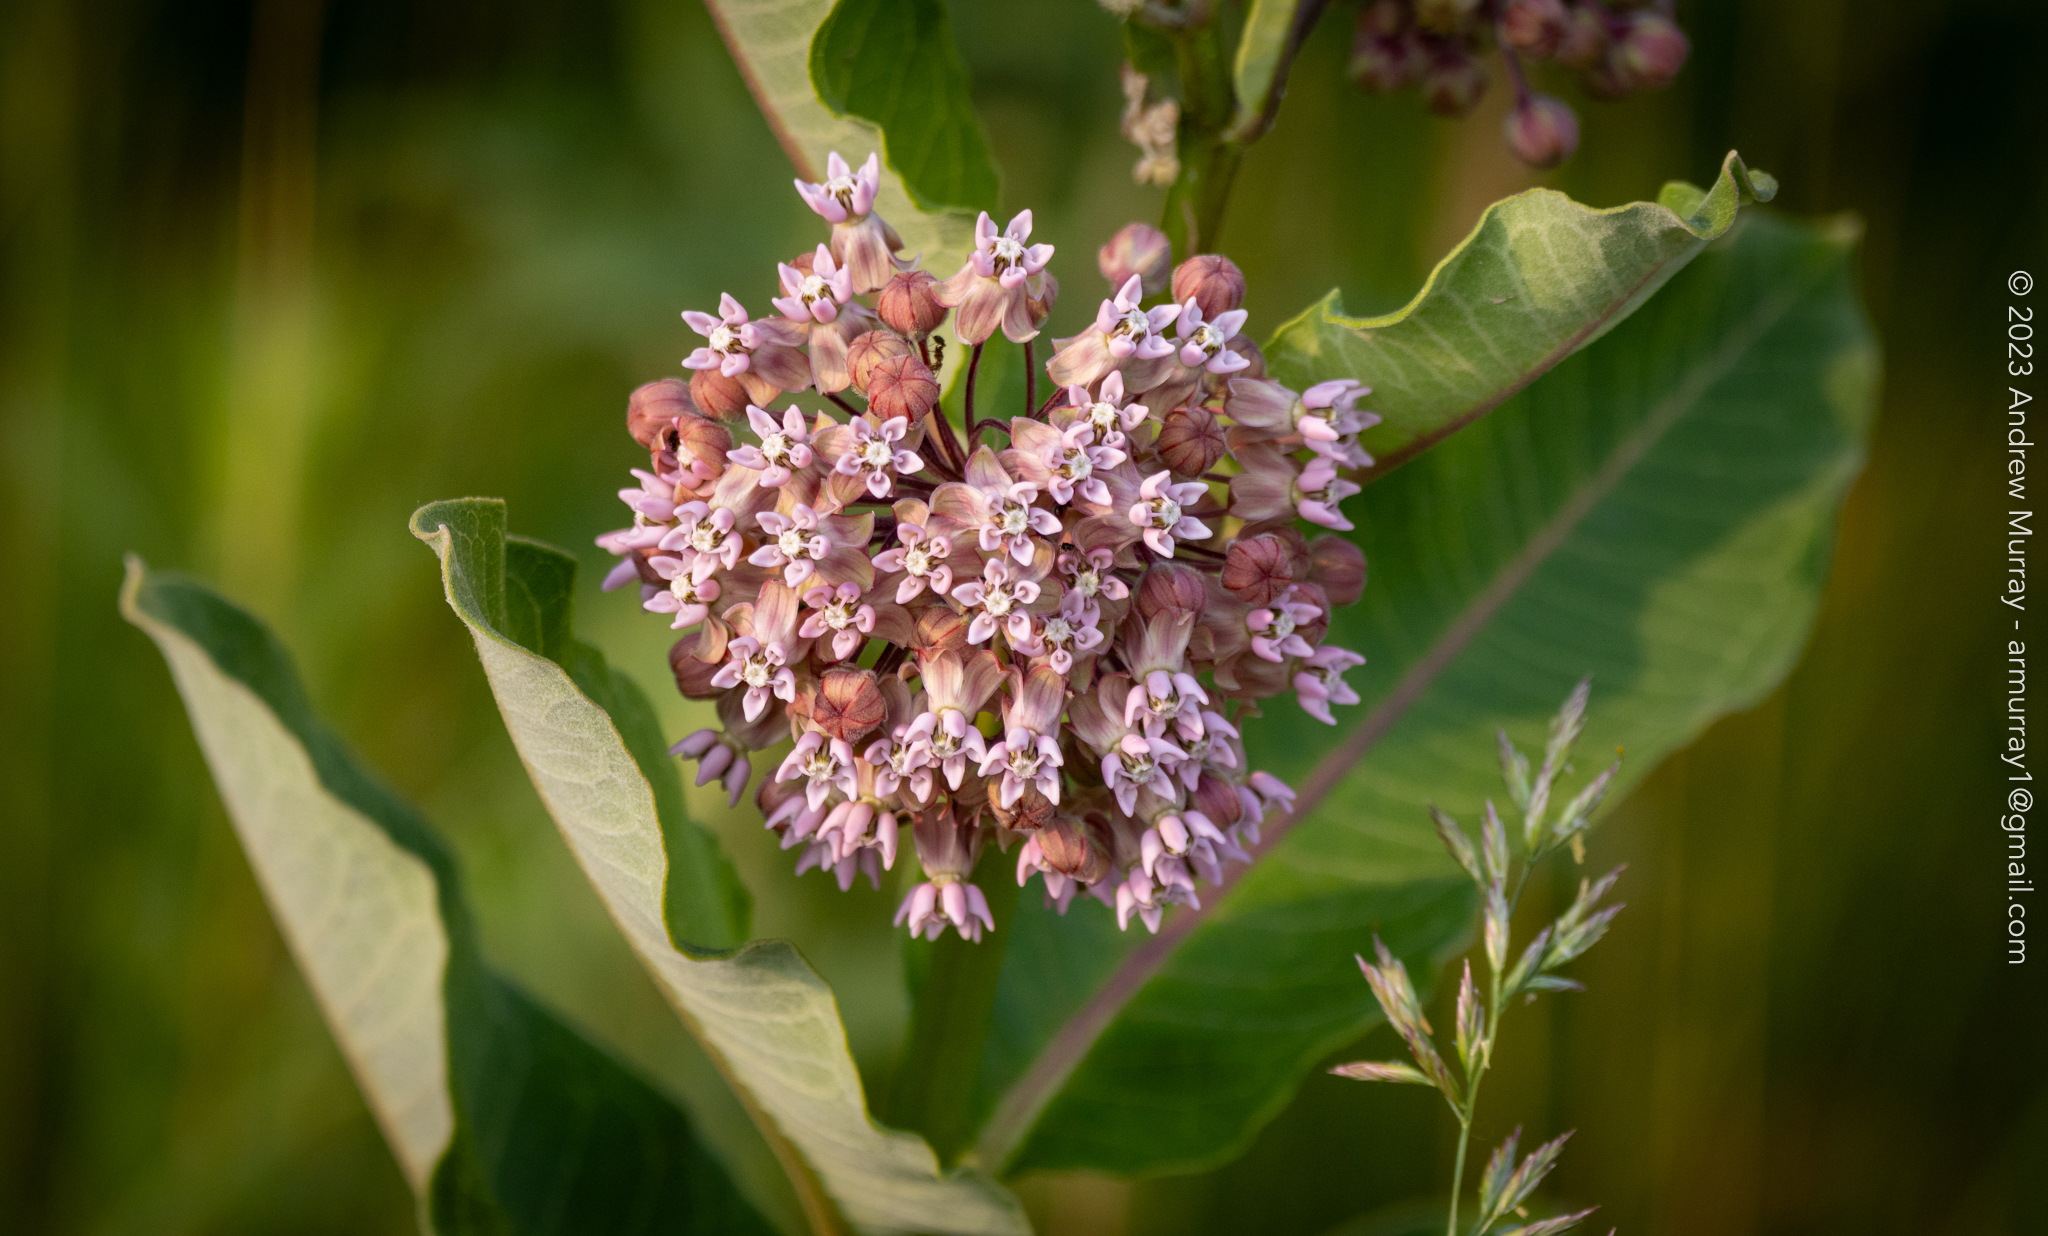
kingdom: Plantae
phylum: Tracheophyta
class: Magnoliopsida
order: Gentianales
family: Apocynaceae
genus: Asclepias
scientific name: Asclepias syriaca
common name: Common milkweed
